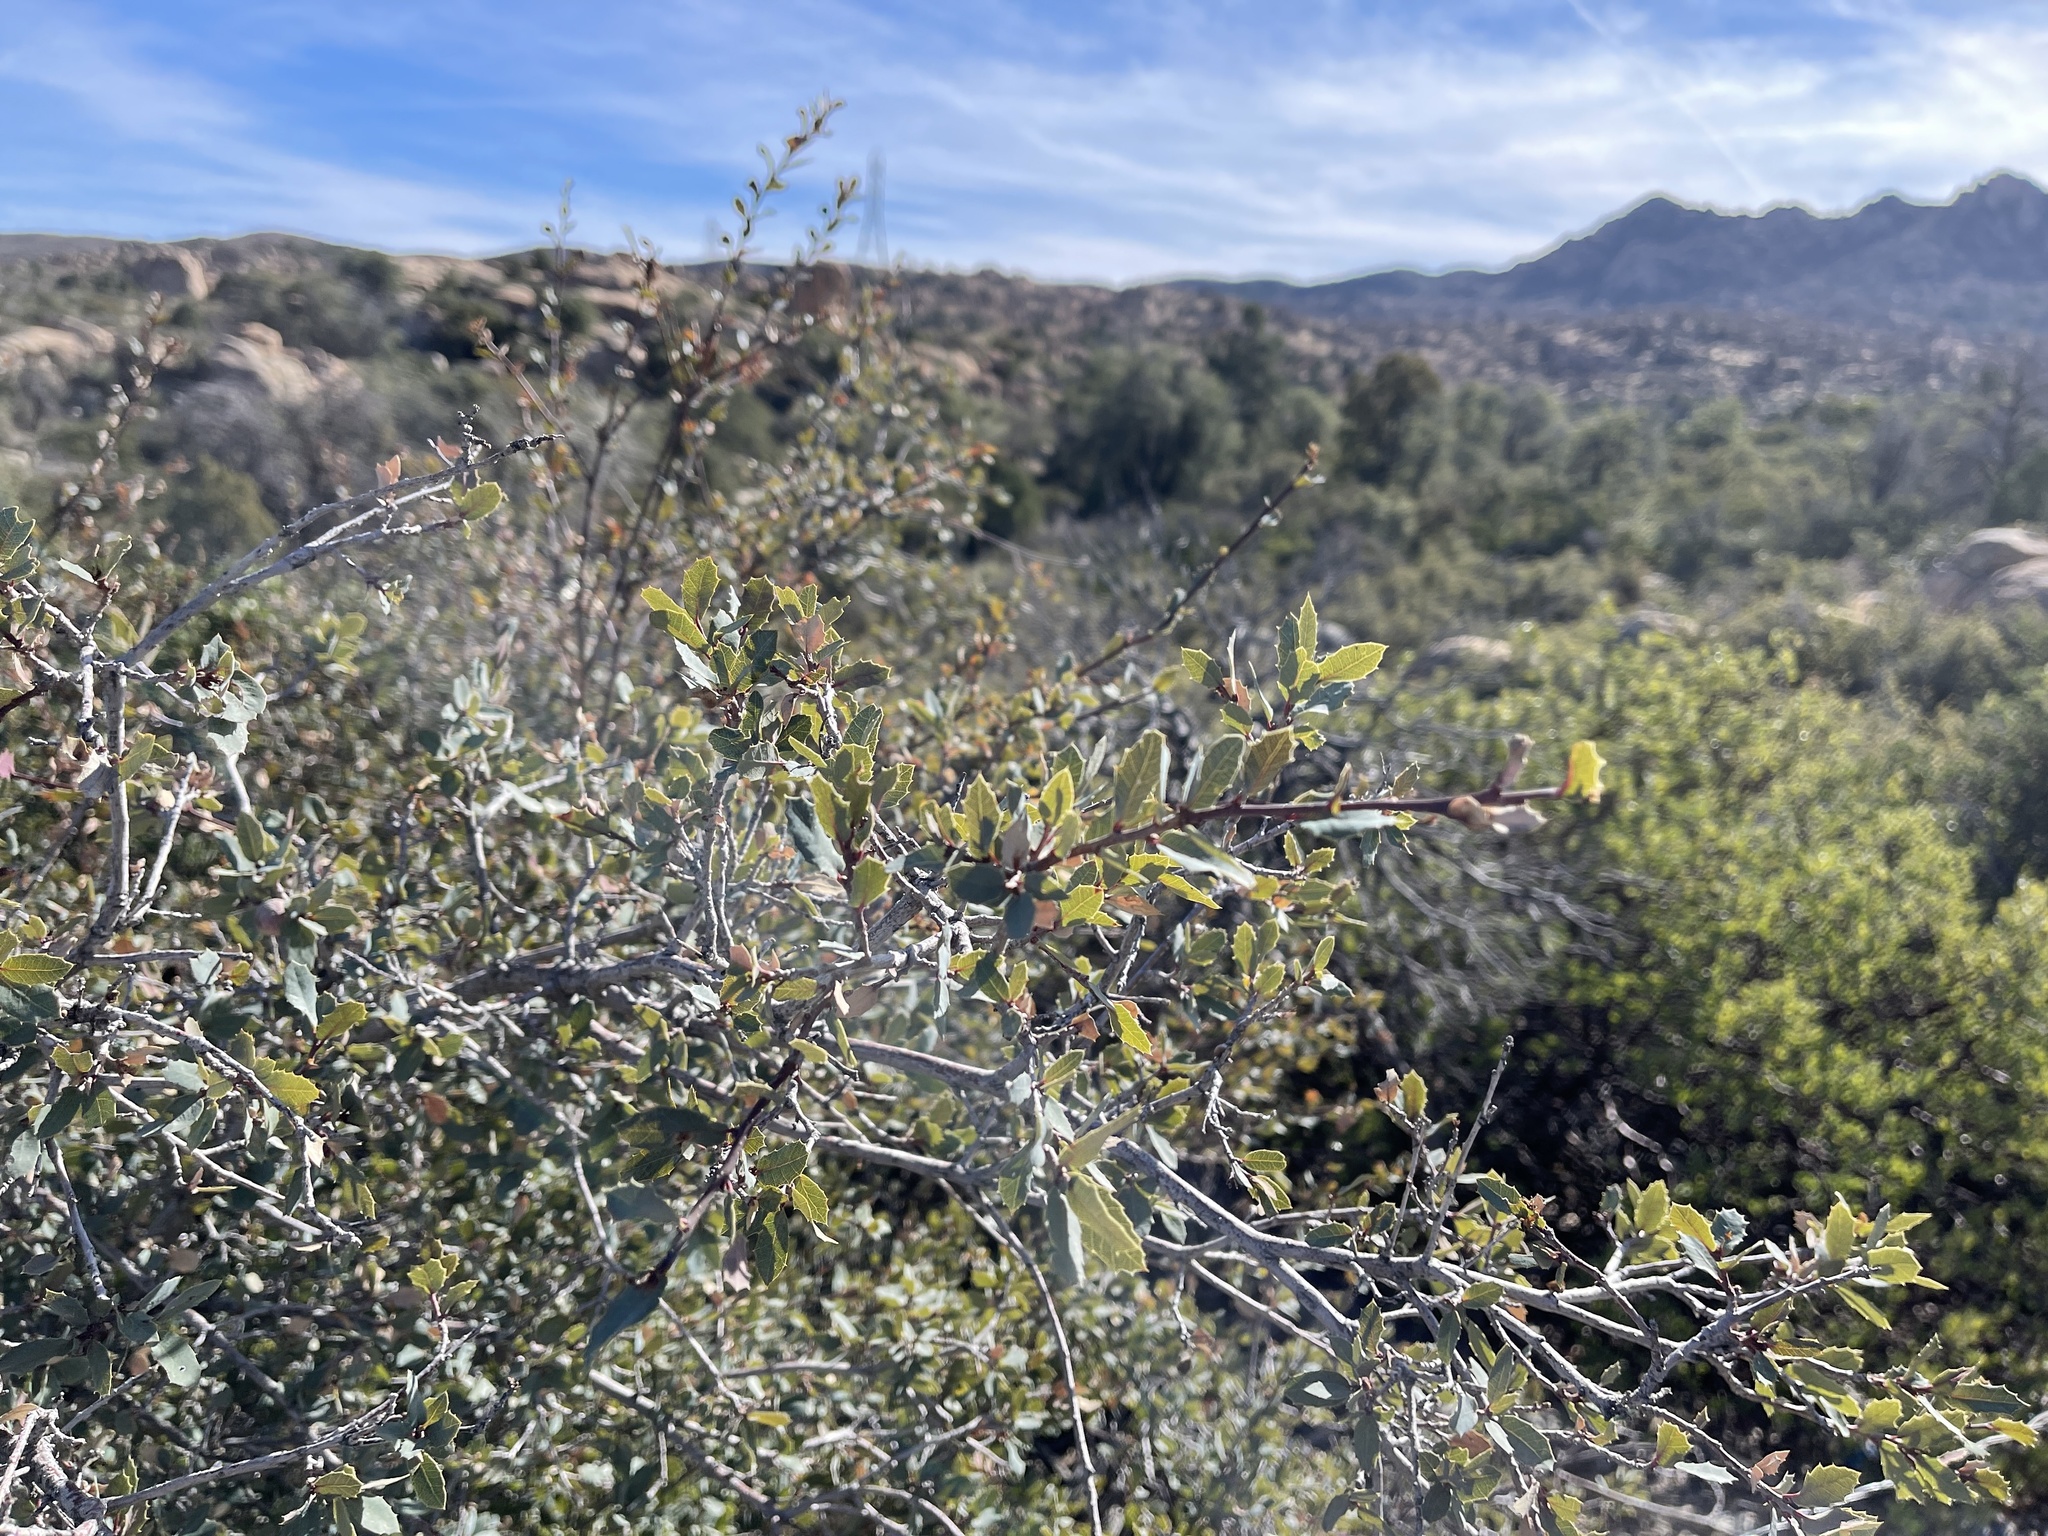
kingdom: Plantae
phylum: Tracheophyta
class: Magnoliopsida
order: Fagales
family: Fagaceae
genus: Quercus
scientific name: Quercus turbinella
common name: Sonoran scrub oak
